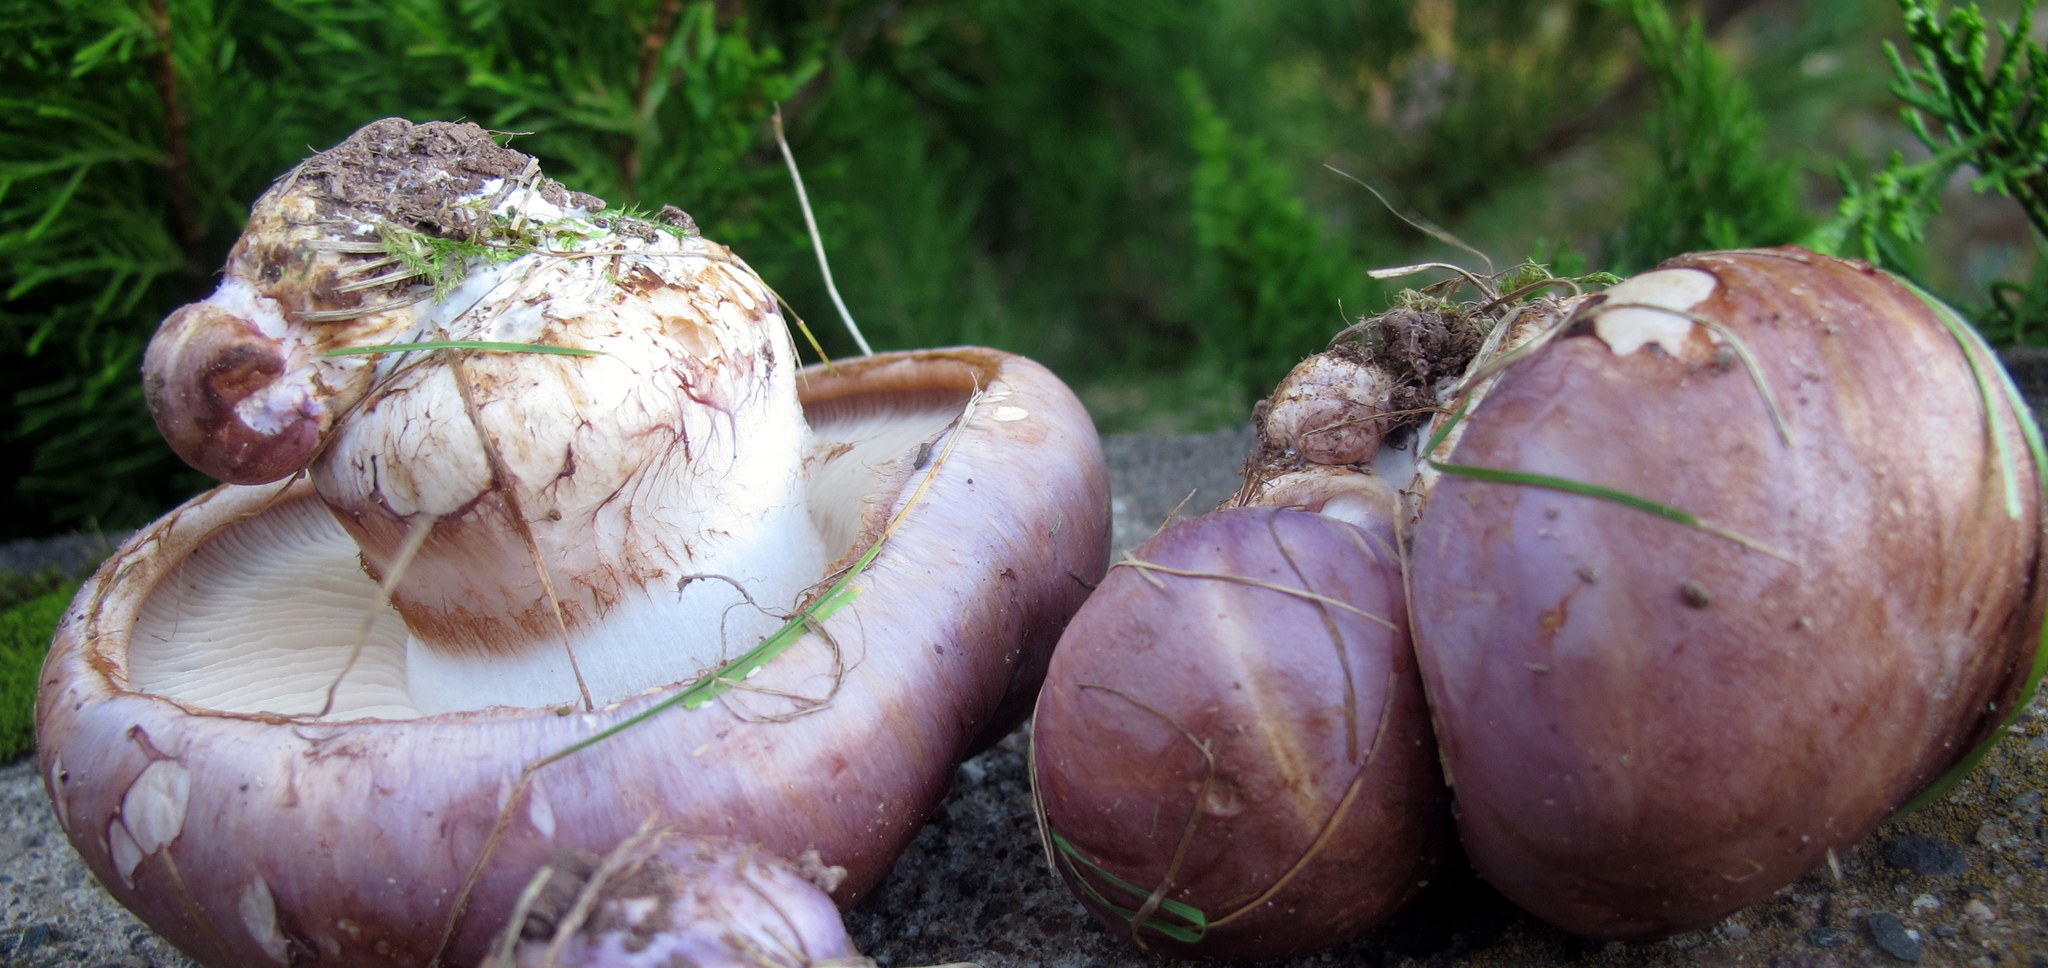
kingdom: Fungi
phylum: Basidiomycota
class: Agaricomycetes
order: Agaricales
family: Cortinariaceae
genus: Phlegmacium
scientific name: Phlegmacium balteatocumatile
